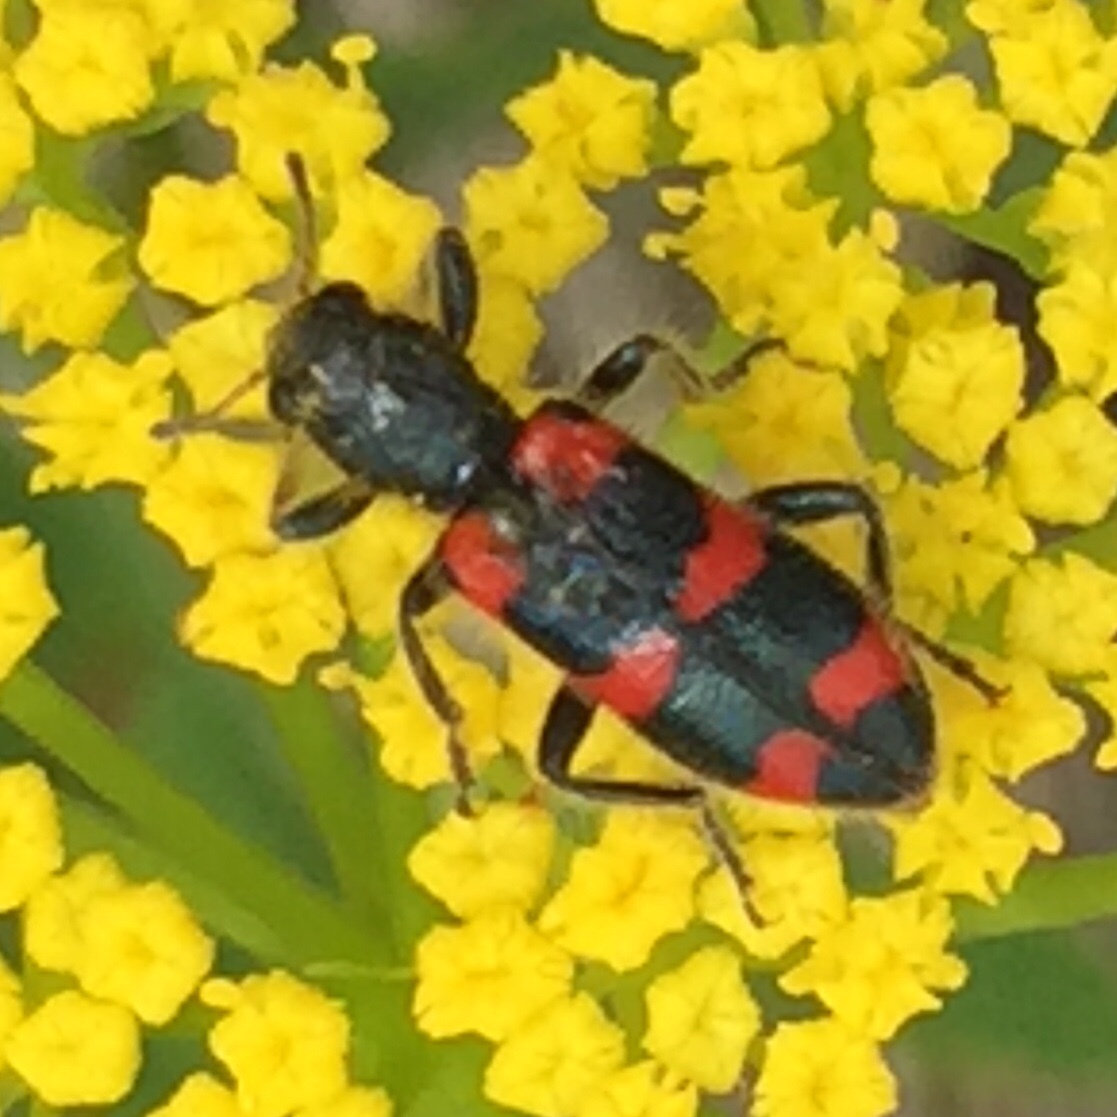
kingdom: Animalia
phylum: Arthropoda
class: Insecta
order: Coleoptera
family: Cleridae
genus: Trichodes
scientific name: Trichodes nutalli
